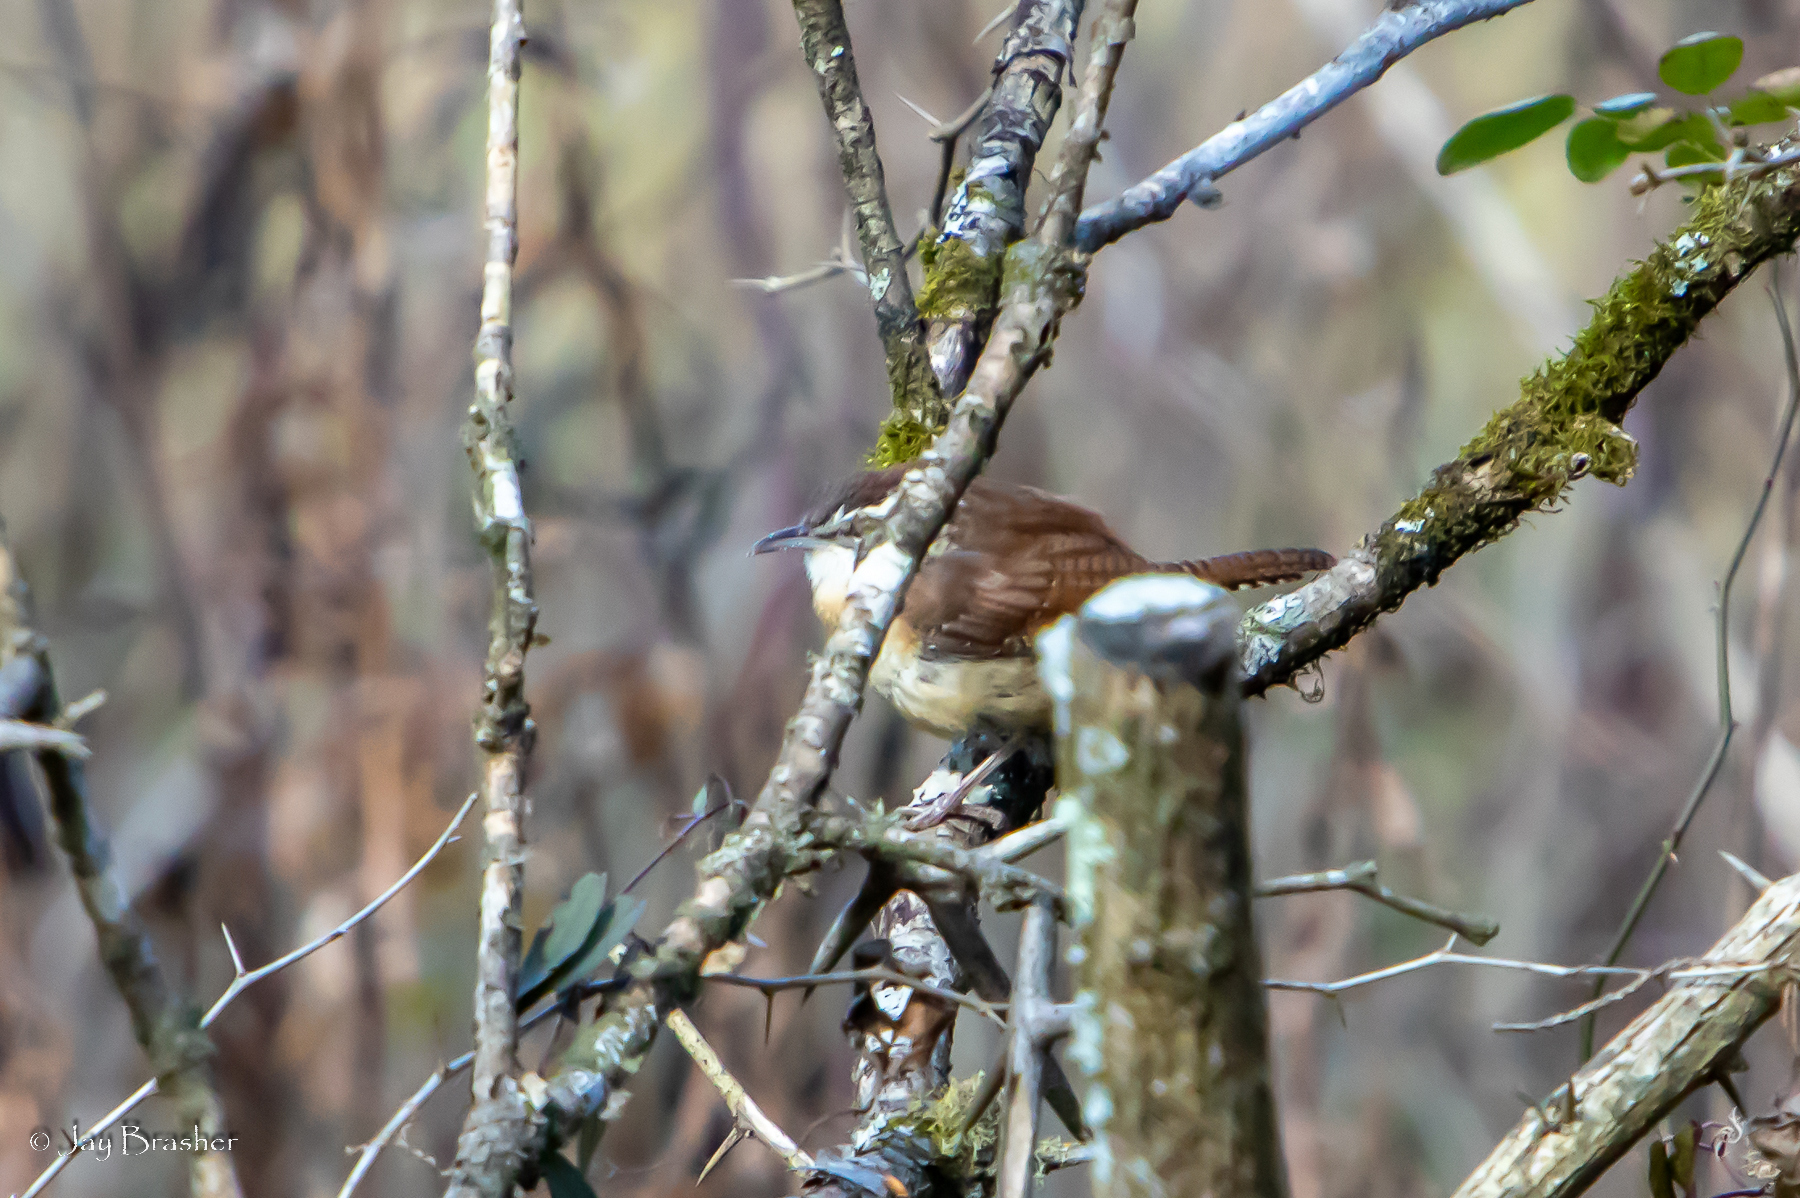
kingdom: Animalia
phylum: Chordata
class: Aves
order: Passeriformes
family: Troglodytidae
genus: Thryothorus
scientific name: Thryothorus ludovicianus
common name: Carolina wren
